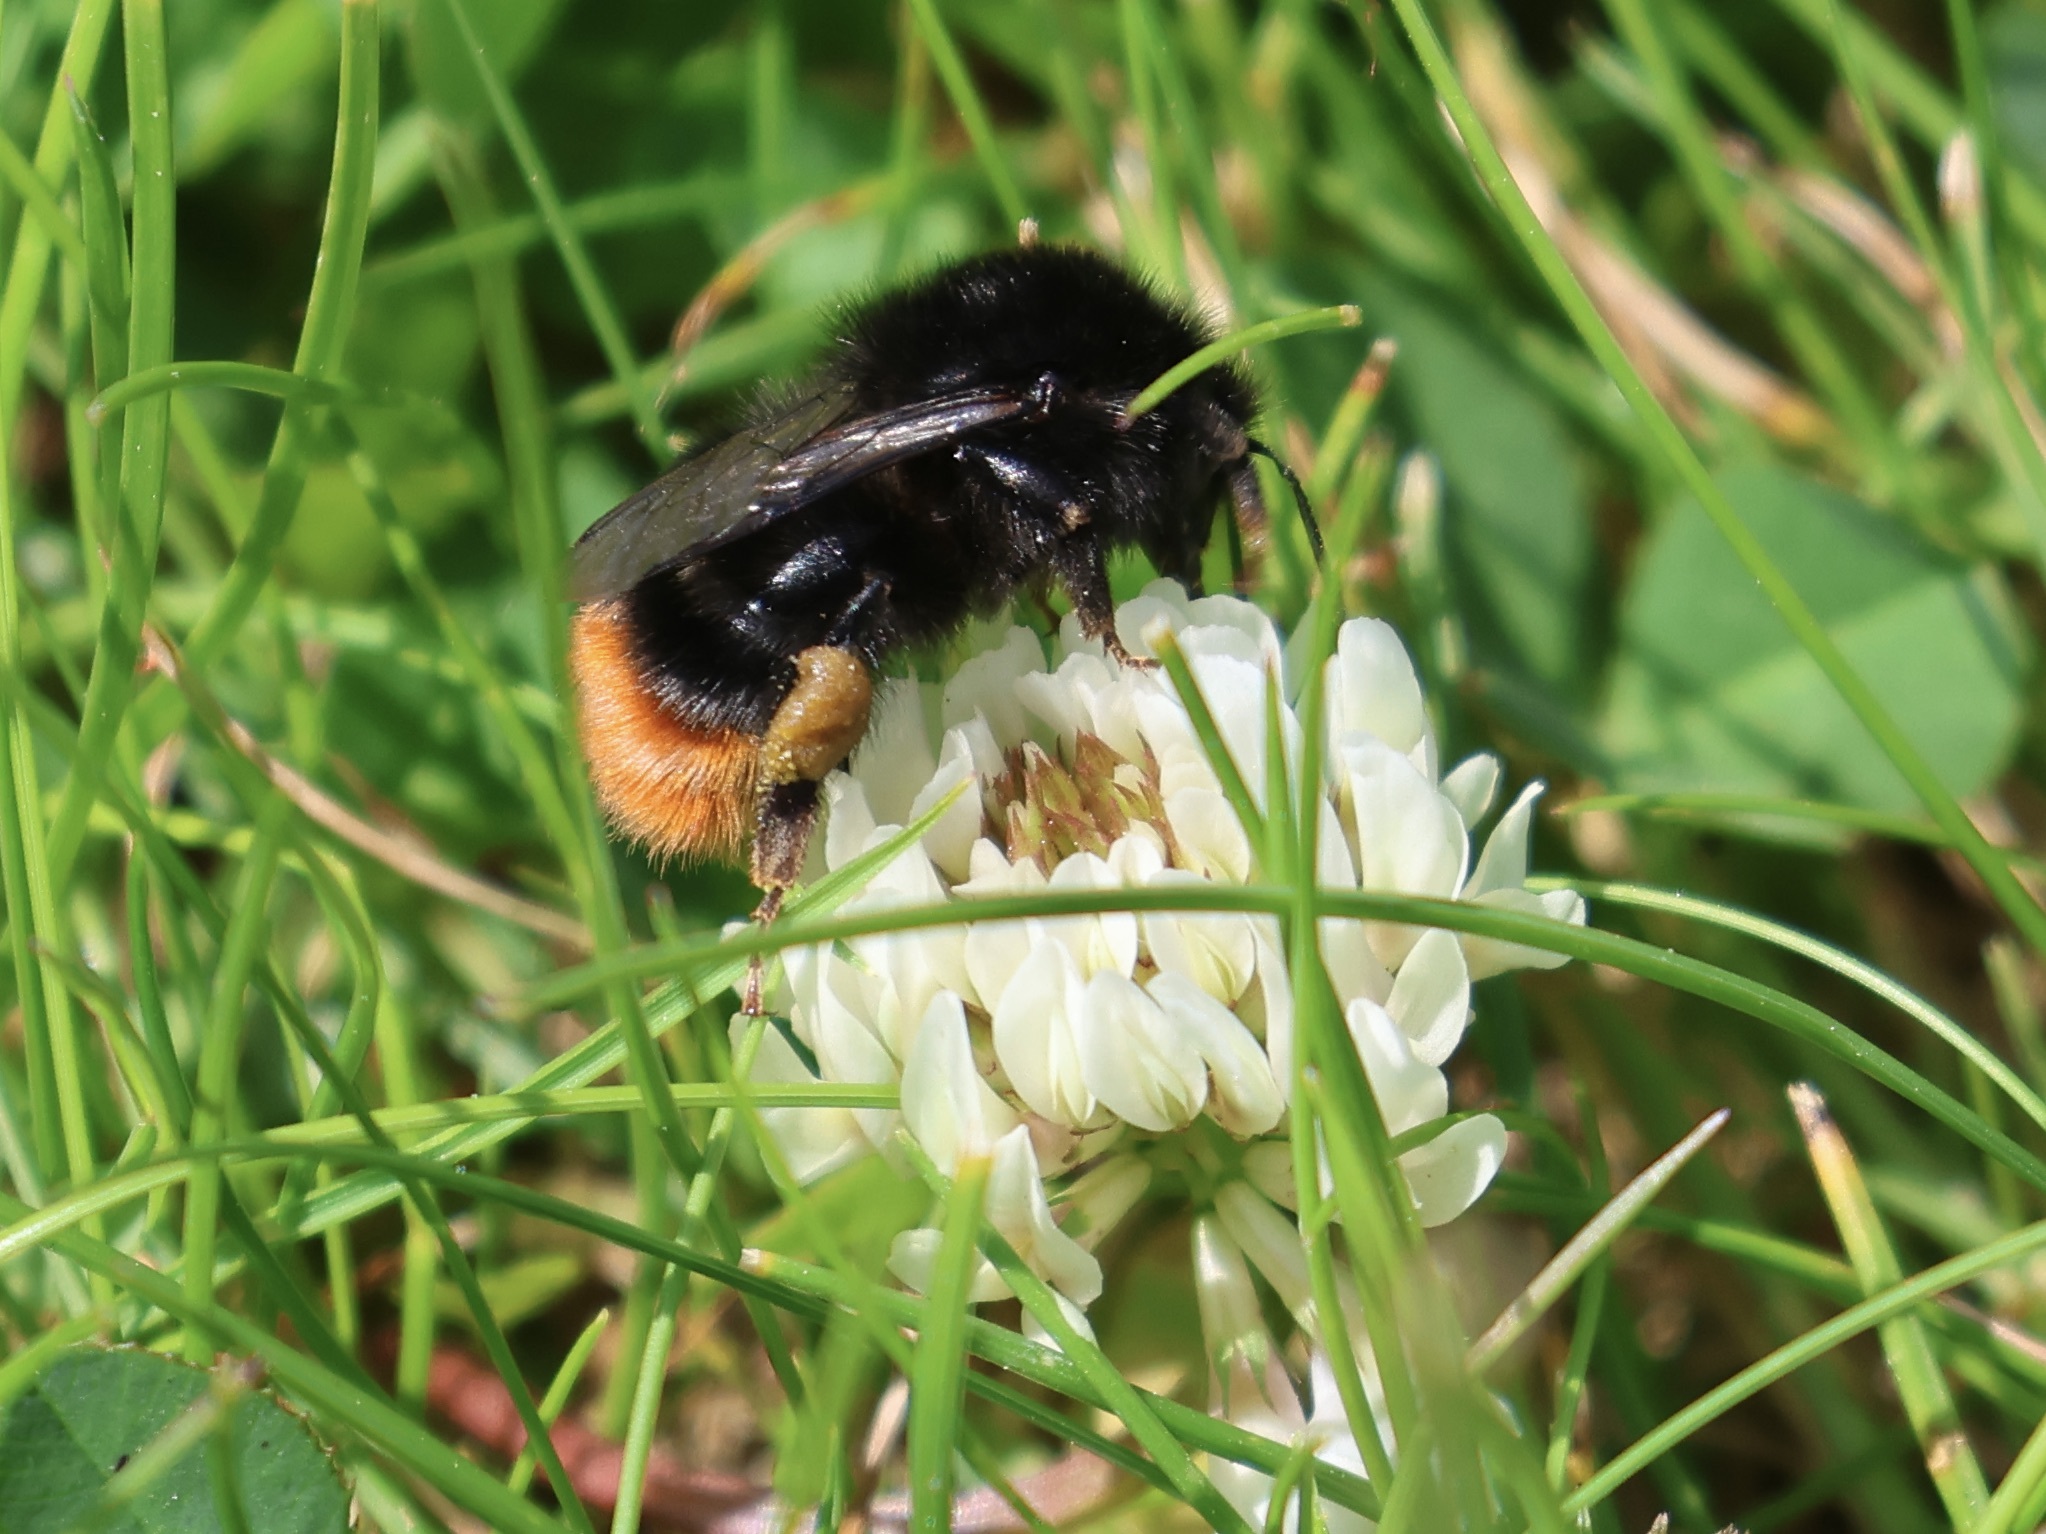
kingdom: Animalia
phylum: Arthropoda
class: Insecta
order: Hymenoptera
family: Apidae
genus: Bombus
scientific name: Bombus lapidarius
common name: Large red-tailed humble-bee
